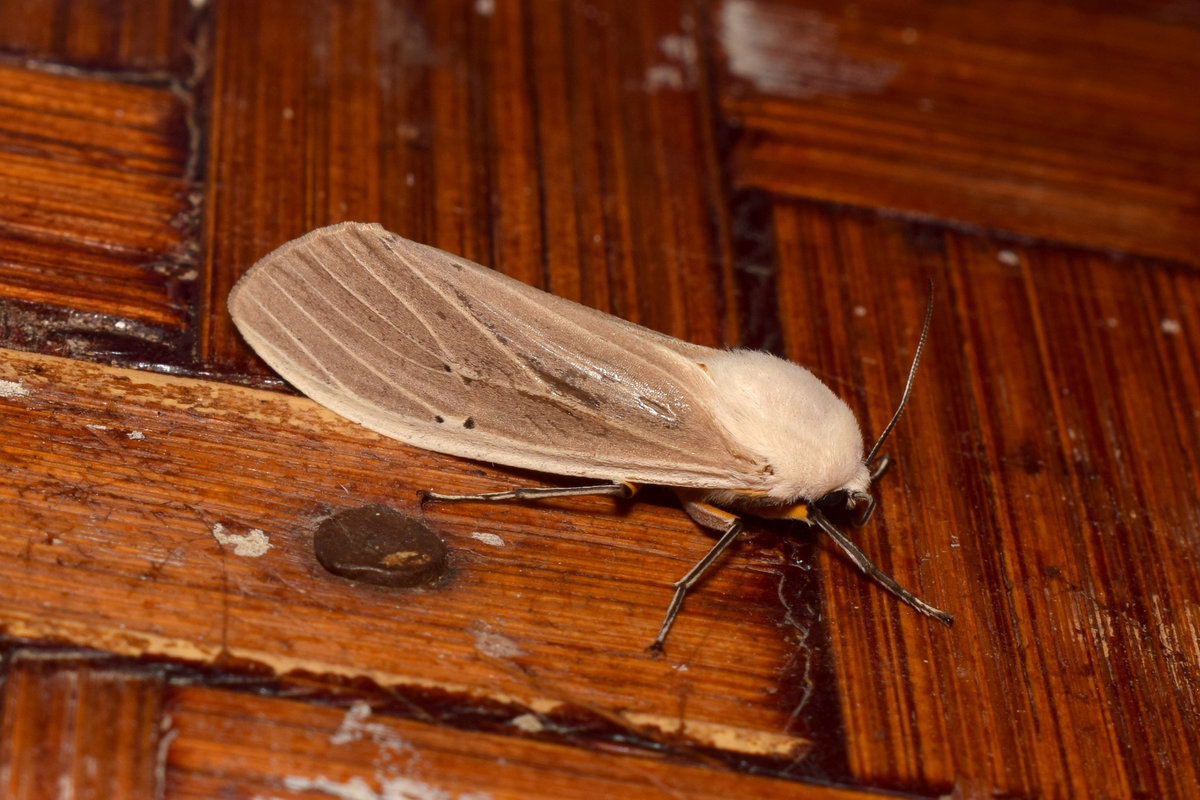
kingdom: Animalia
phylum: Arthropoda
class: Insecta
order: Lepidoptera
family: Erebidae
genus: Creatonotos
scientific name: Creatonotos transiens
